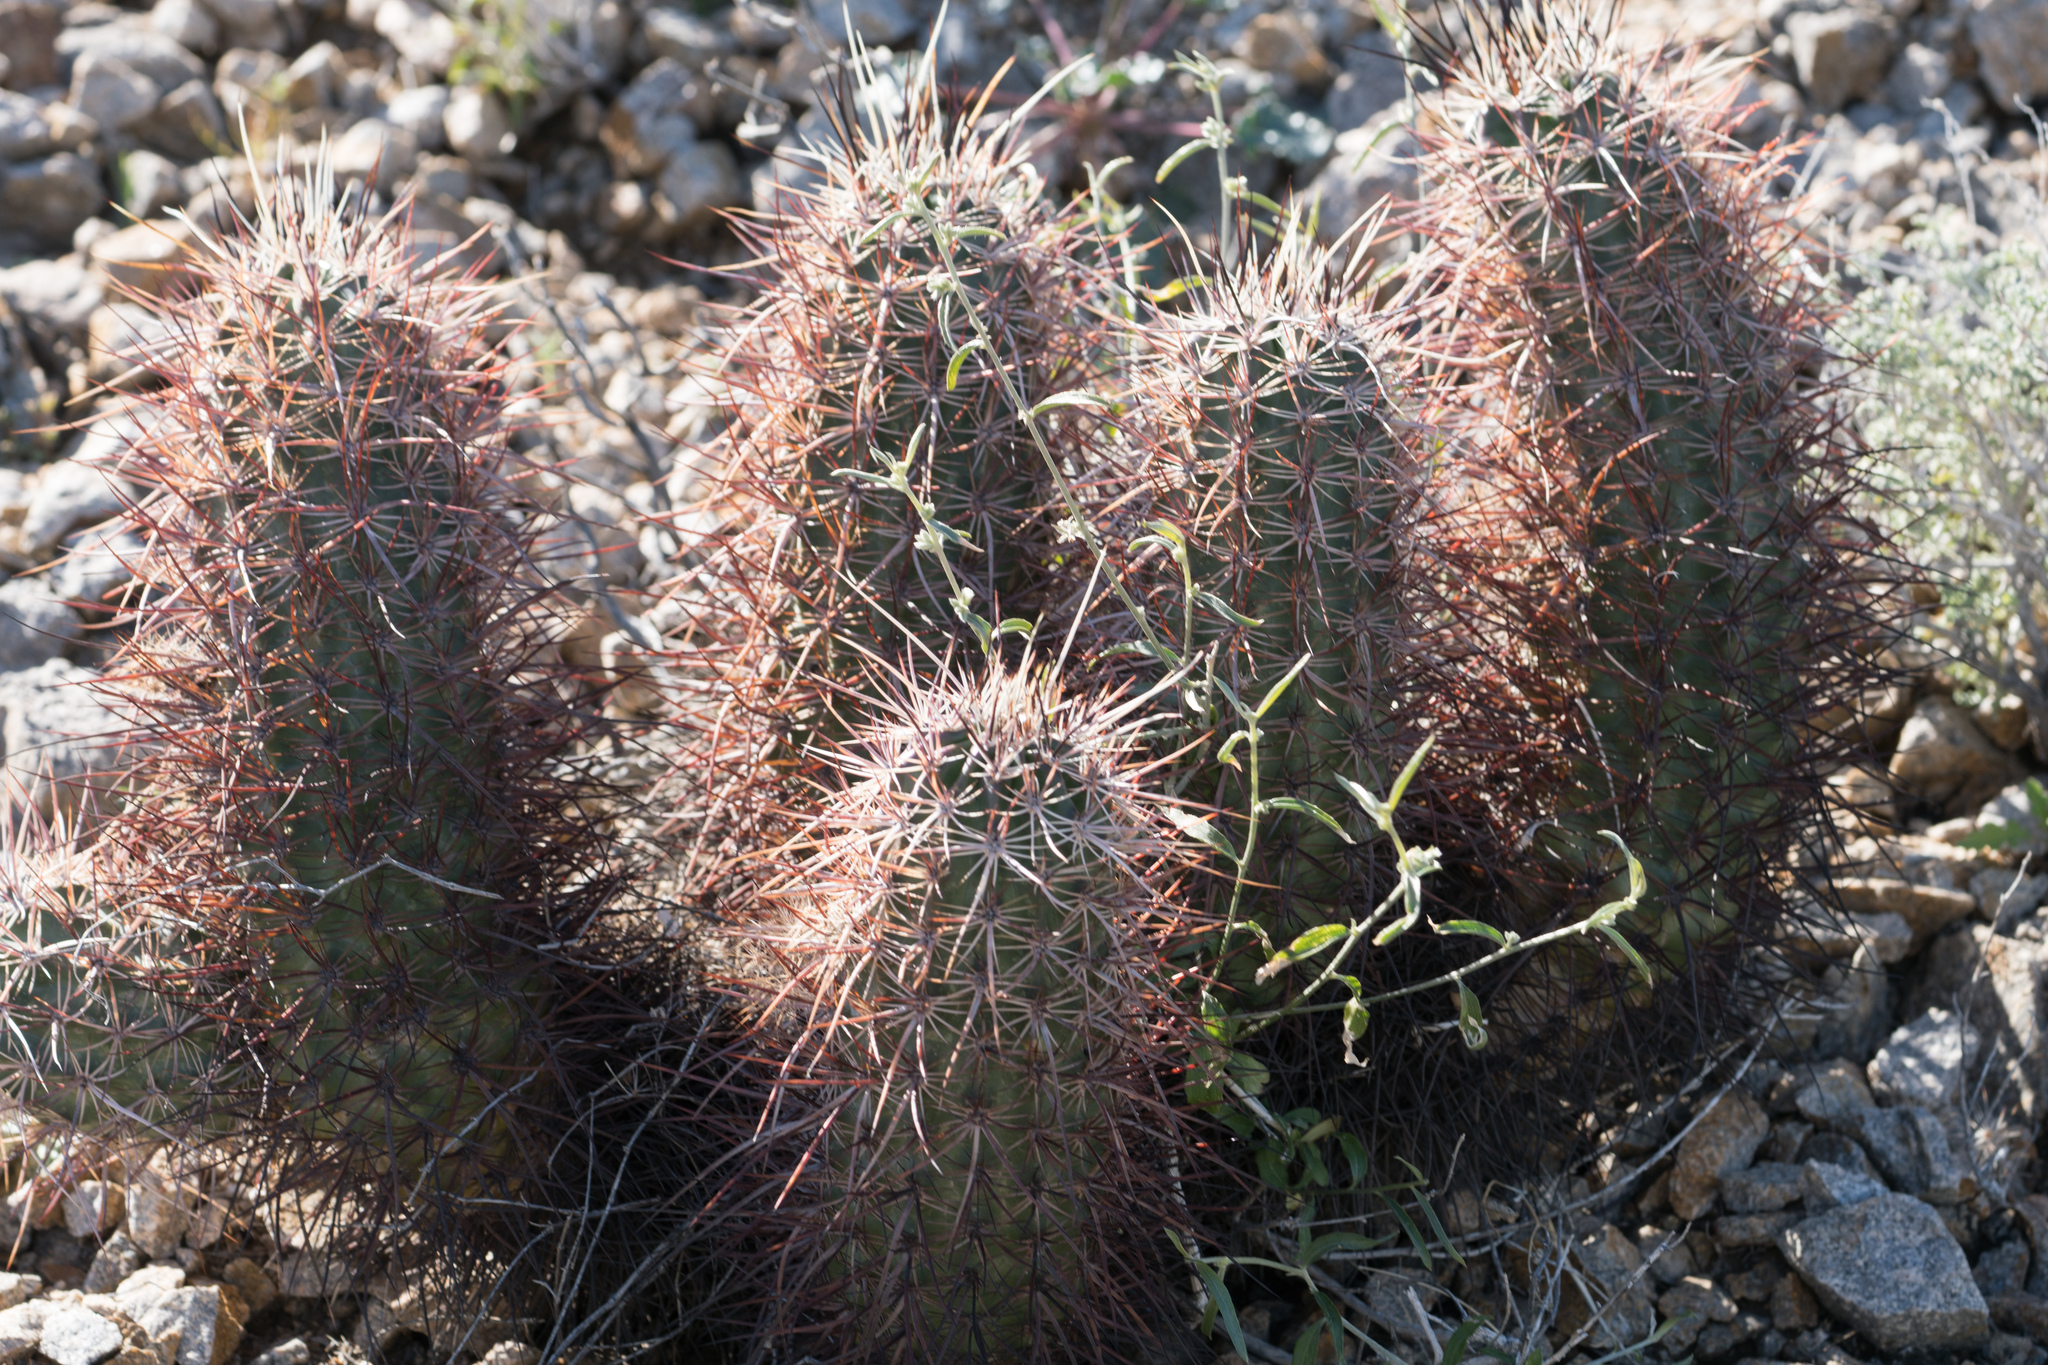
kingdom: Plantae
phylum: Tracheophyta
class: Magnoliopsida
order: Caryophyllales
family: Cactaceae
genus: Echinocereus
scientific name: Echinocereus engelmannii
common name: Engelmann's hedgehog cactus
